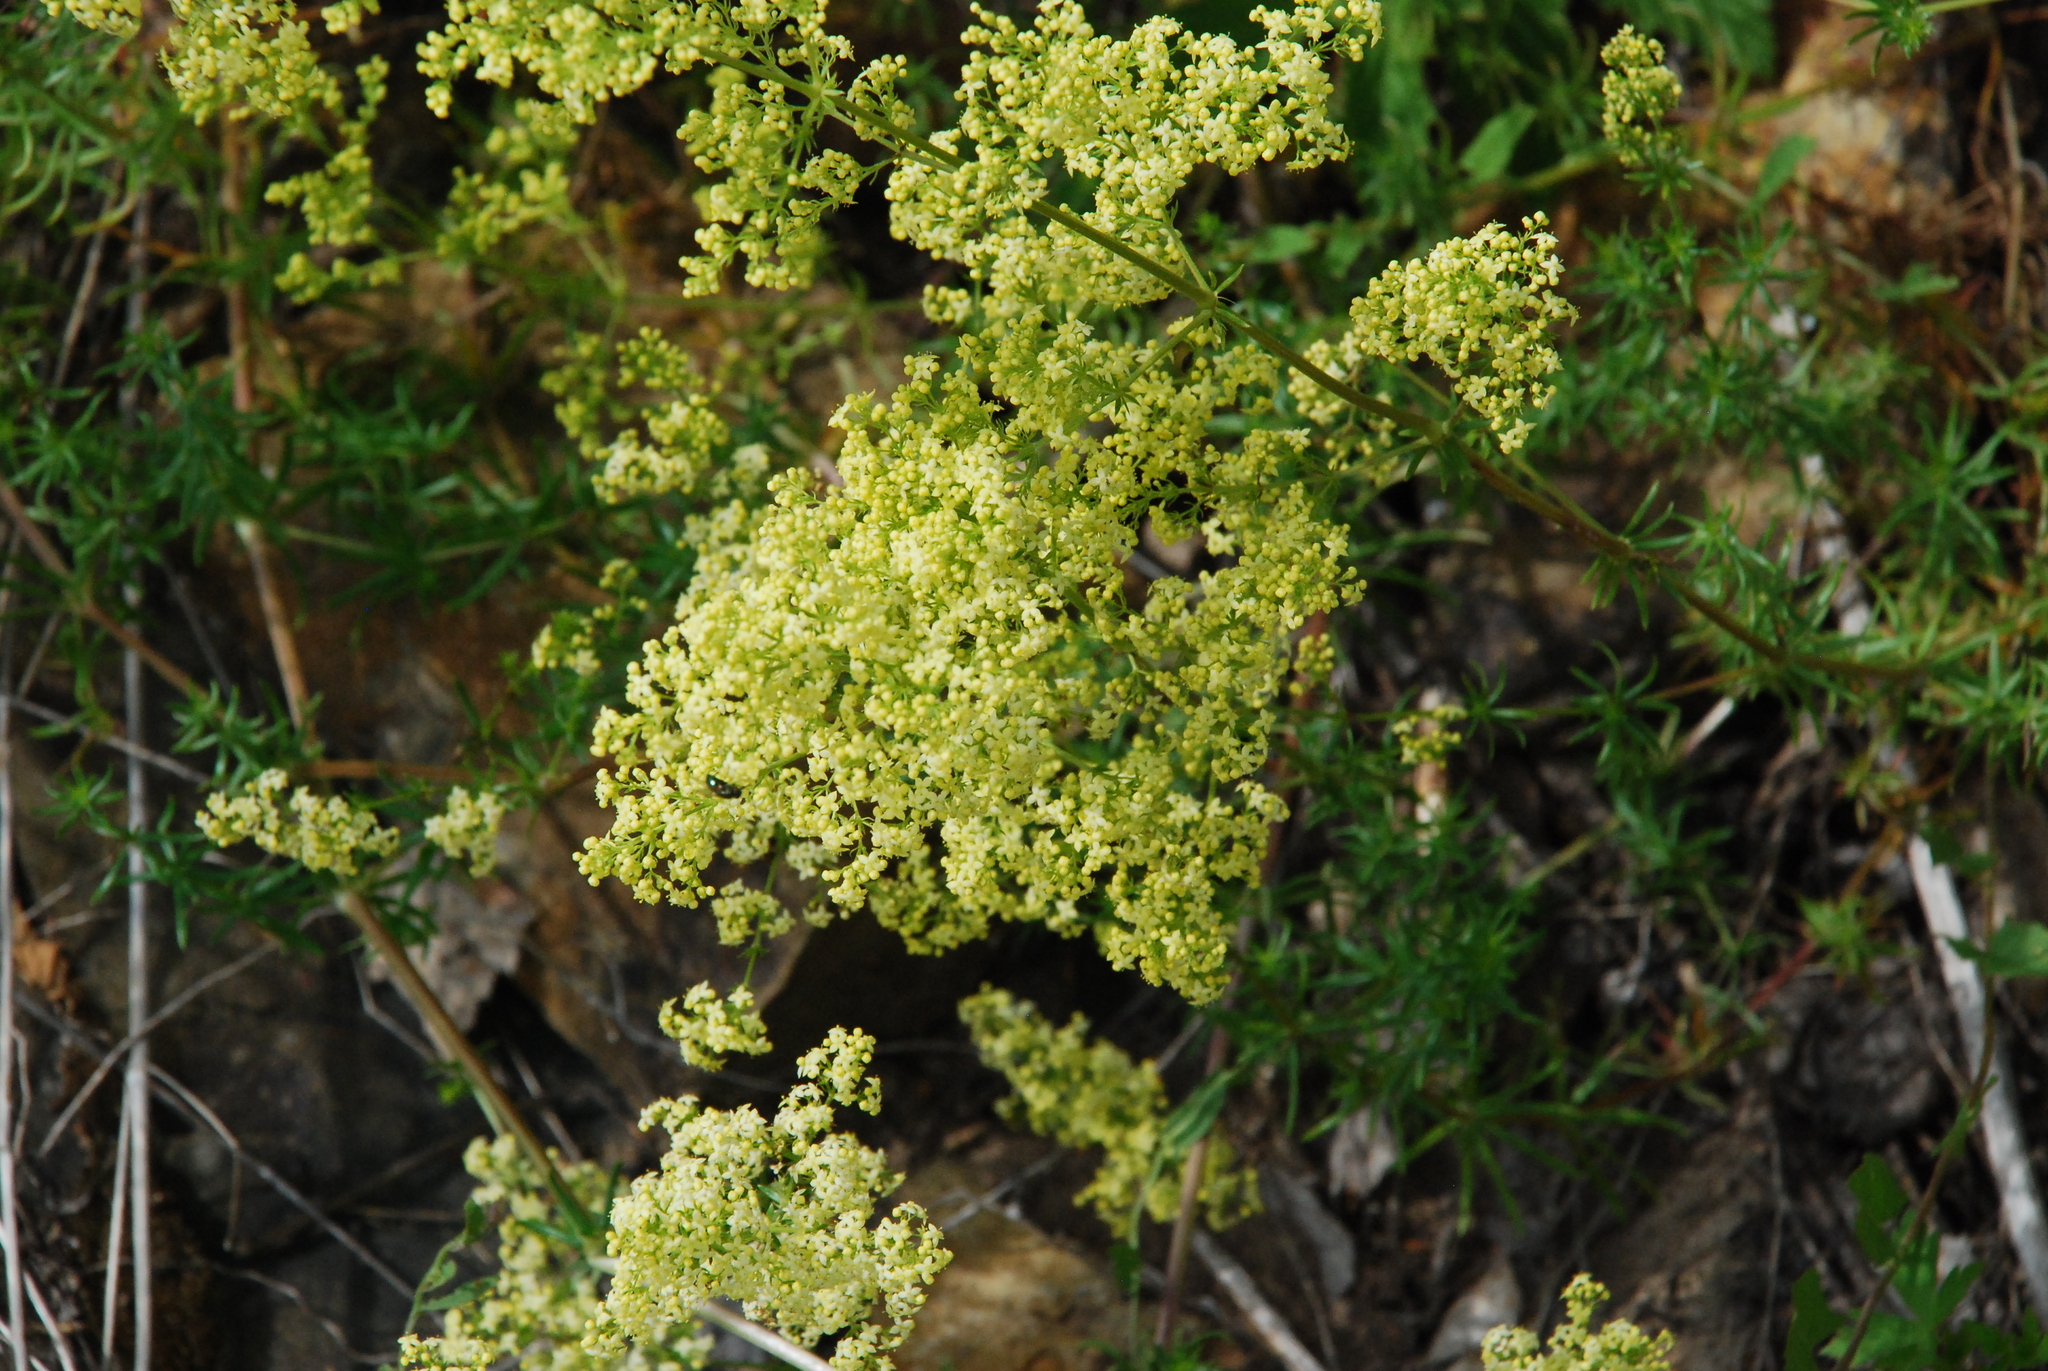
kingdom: Plantae
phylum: Tracheophyta
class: Magnoliopsida
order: Gentianales
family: Rubiaceae
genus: Galium
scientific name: Galium pomeranicum
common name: Bedstraw
